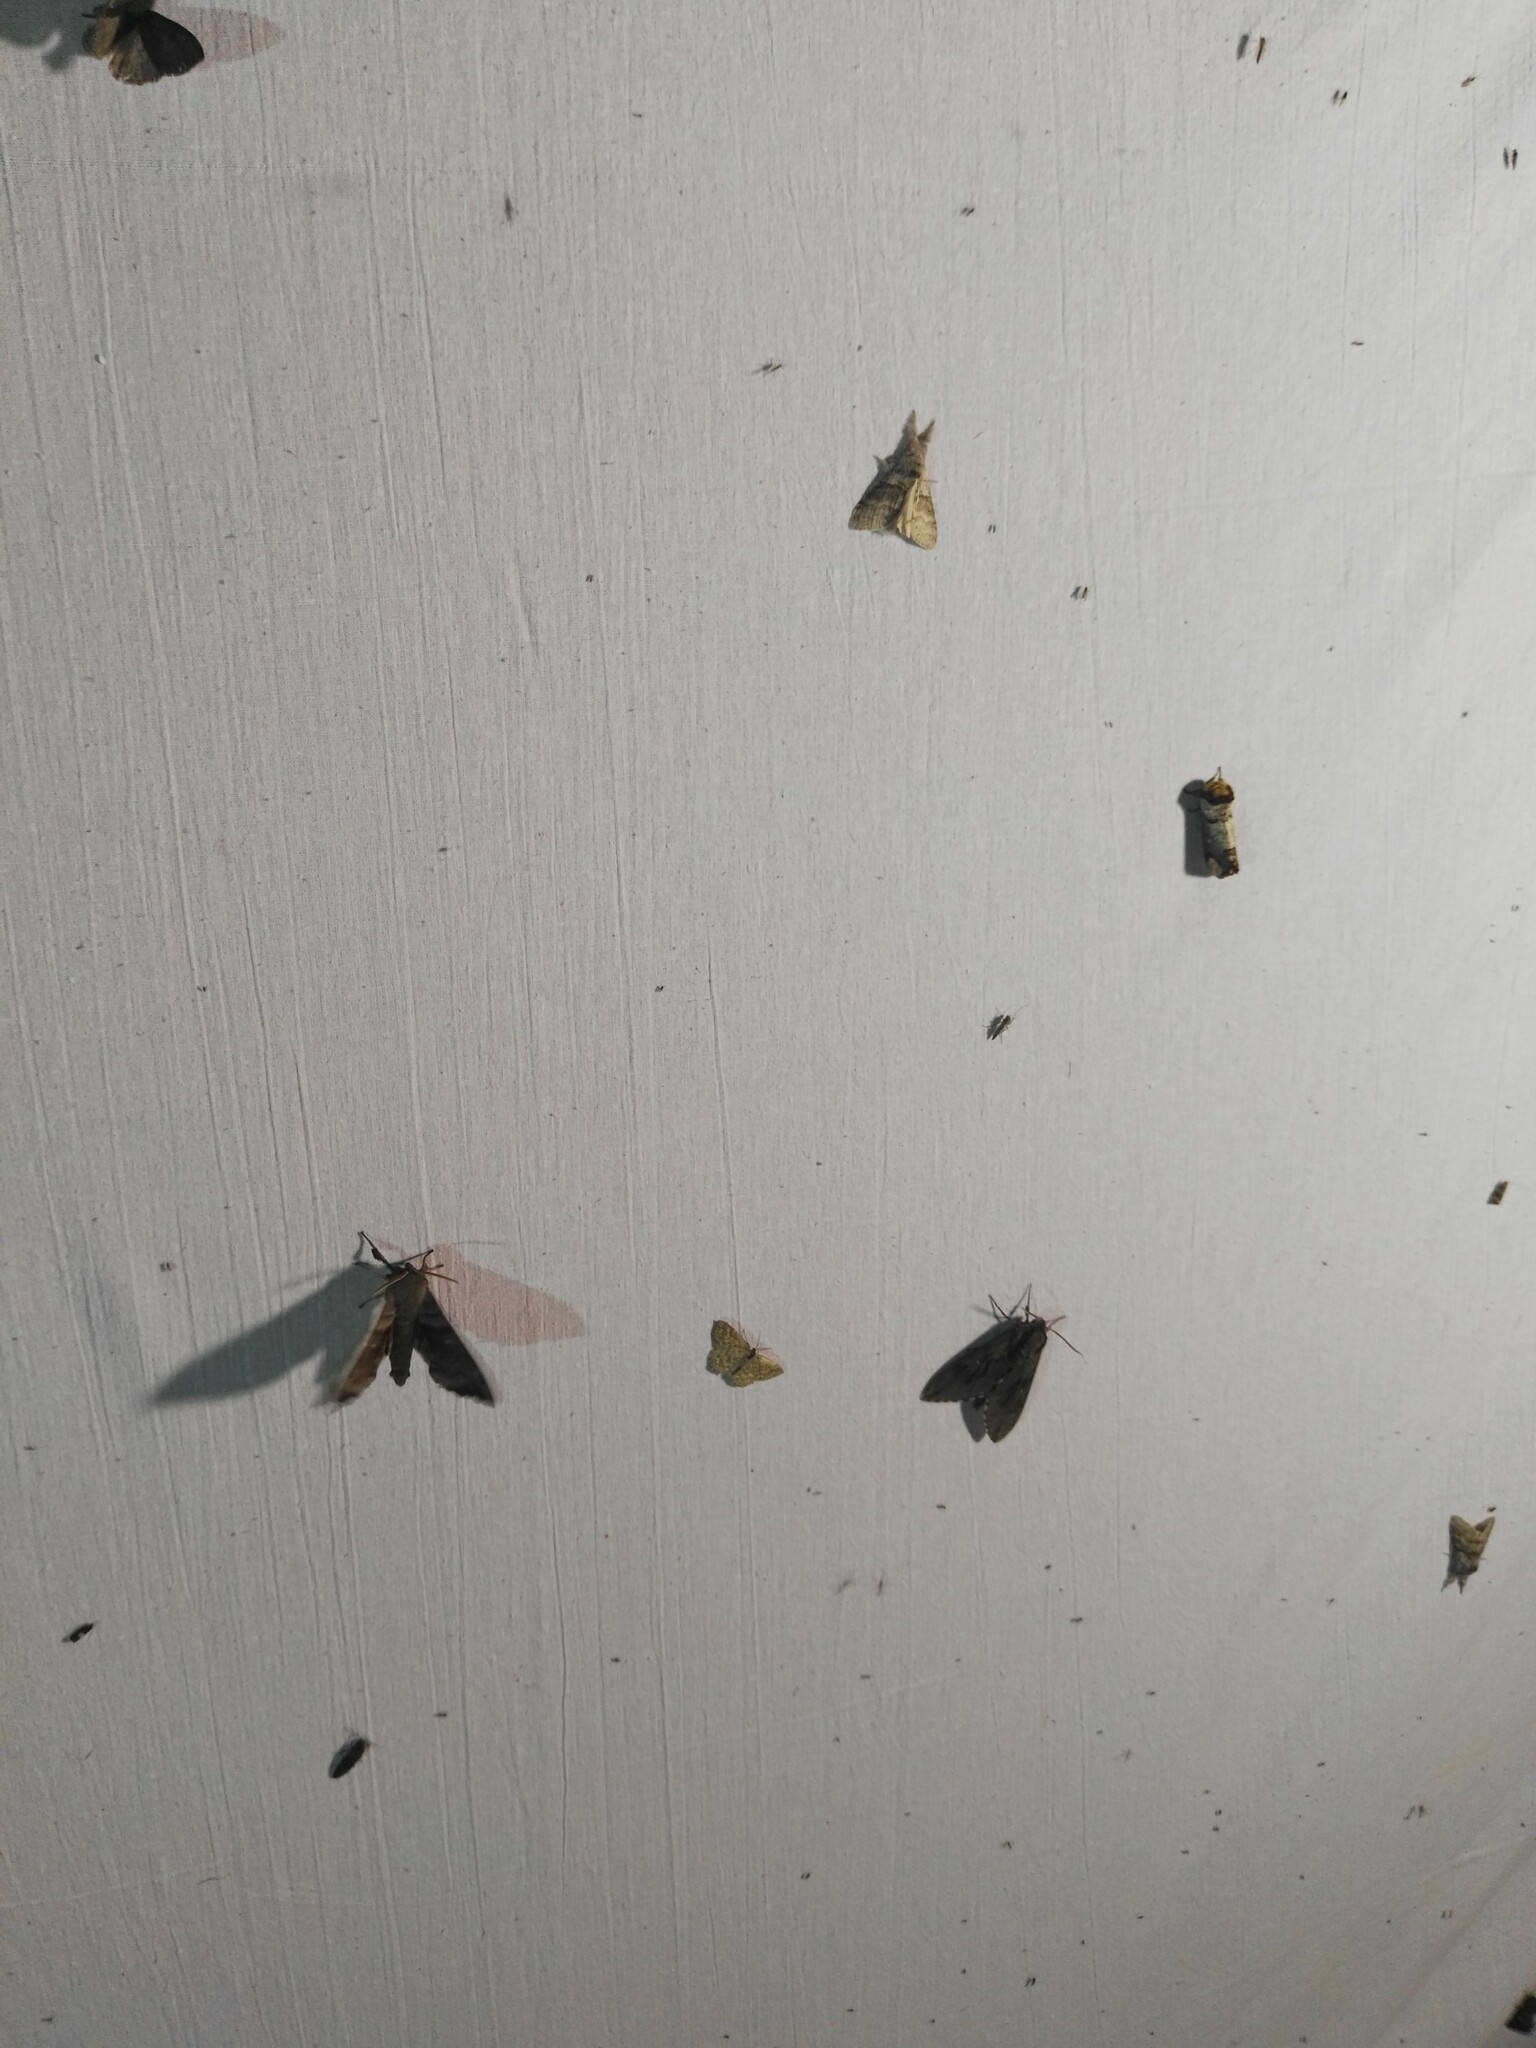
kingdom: Animalia
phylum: Arthropoda
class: Insecta
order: Lepidoptera
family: Geometridae
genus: Scopula
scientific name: Scopula immorata
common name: Lewes wave
